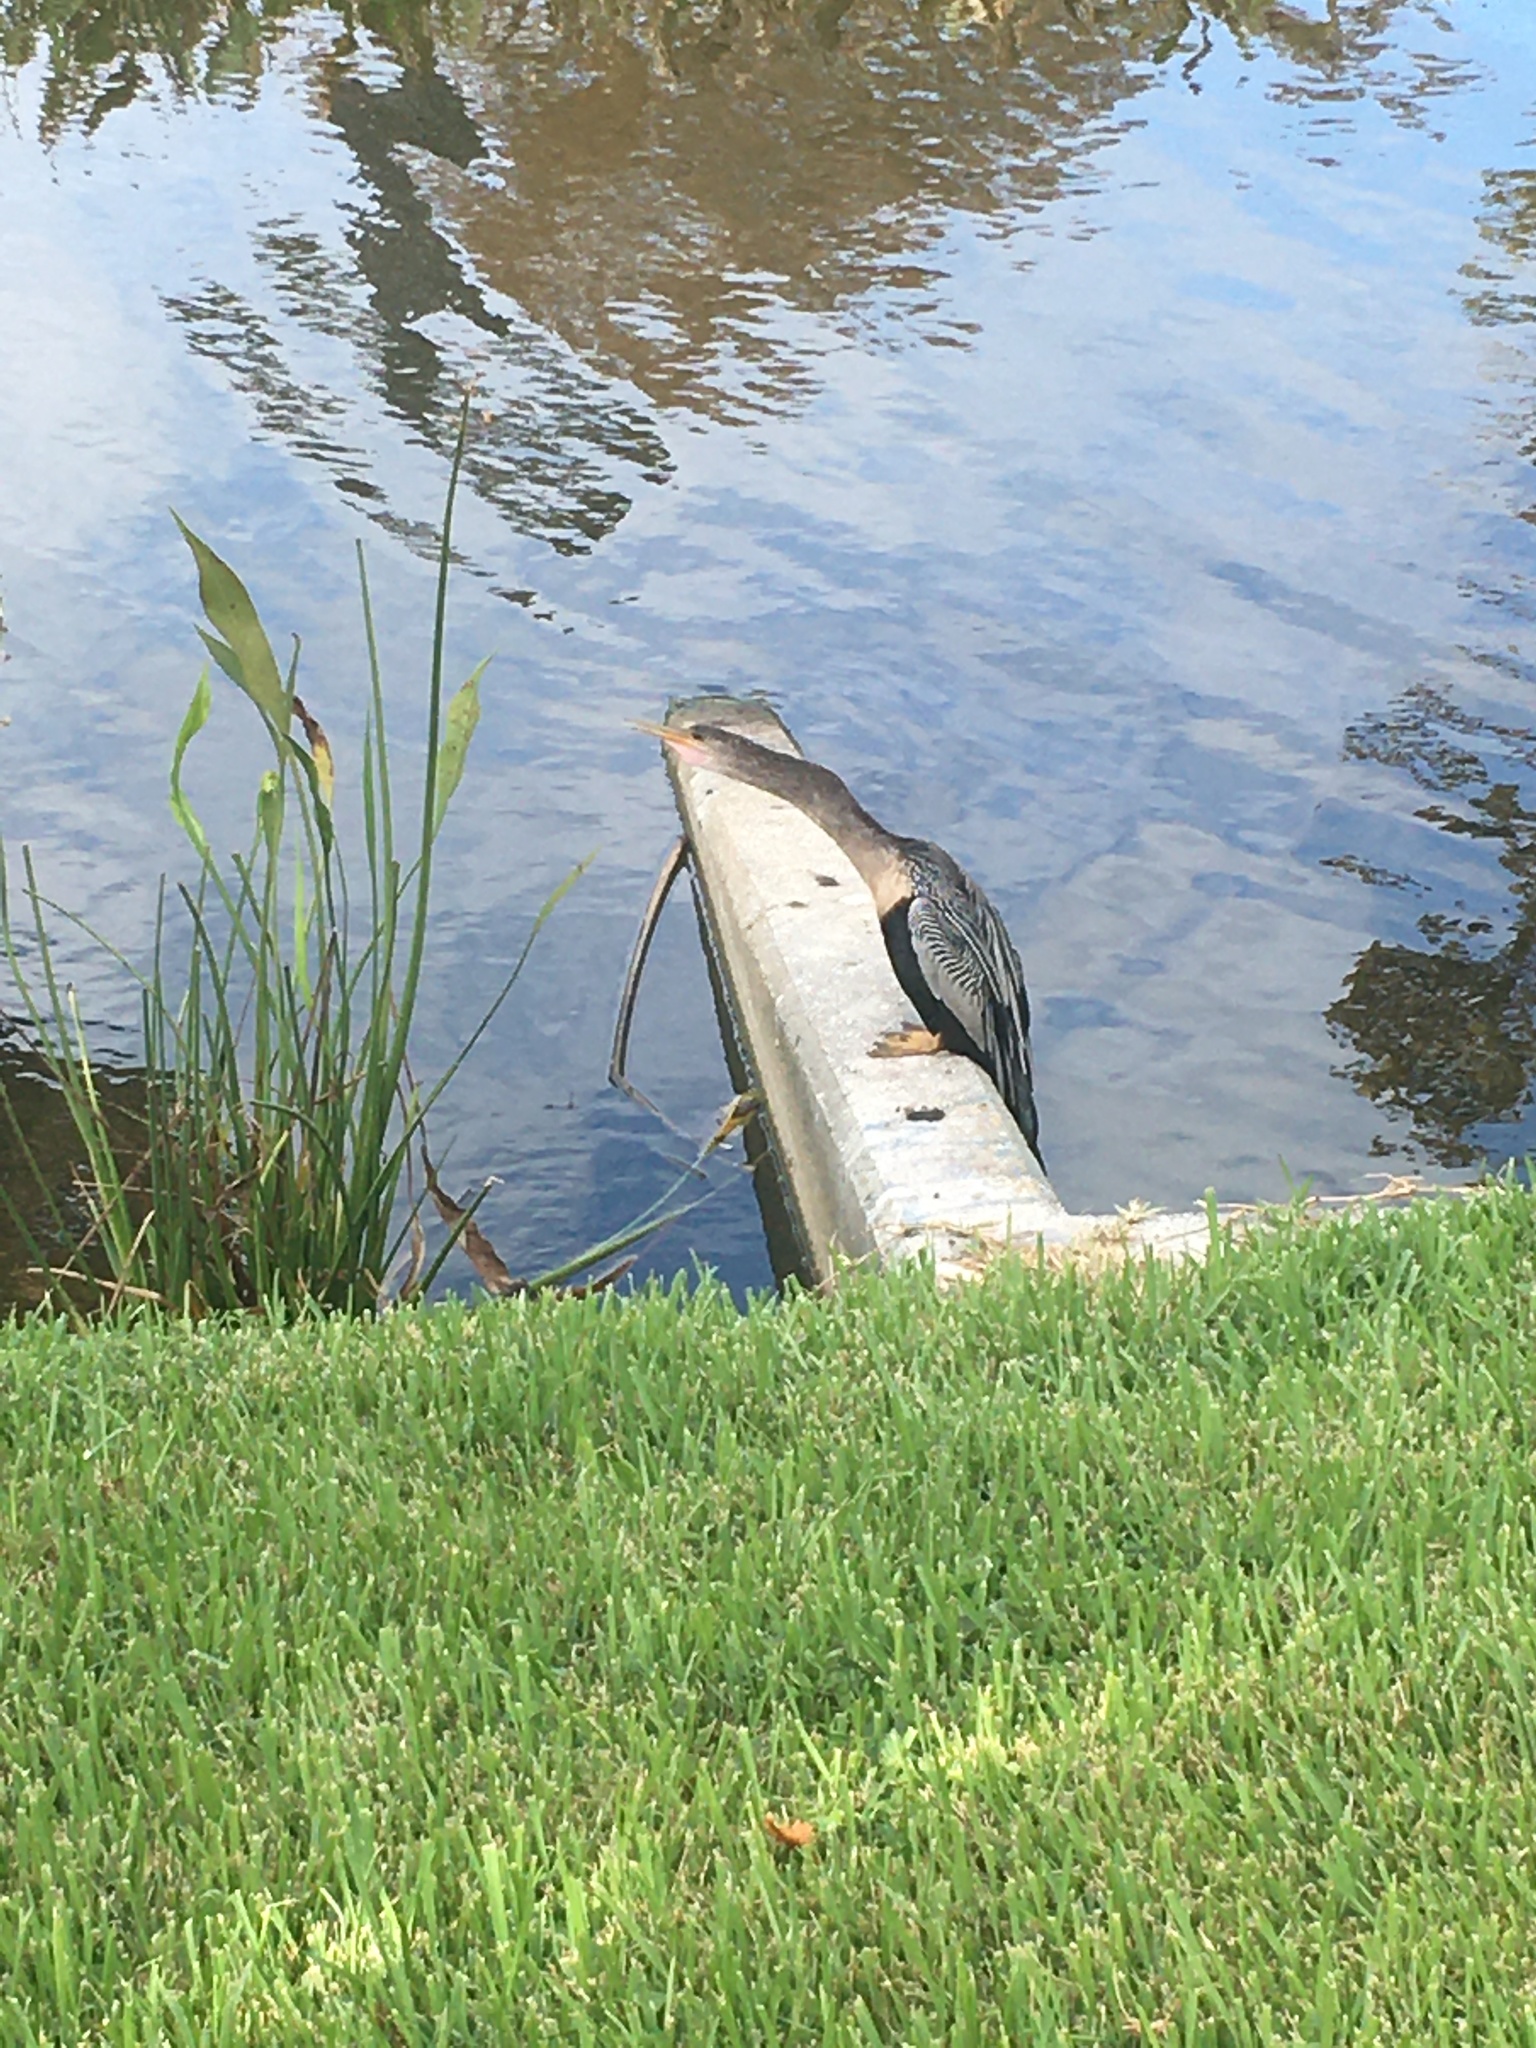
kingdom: Animalia
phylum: Chordata
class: Aves
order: Suliformes
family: Anhingidae
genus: Anhinga
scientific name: Anhinga anhinga
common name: Anhinga
